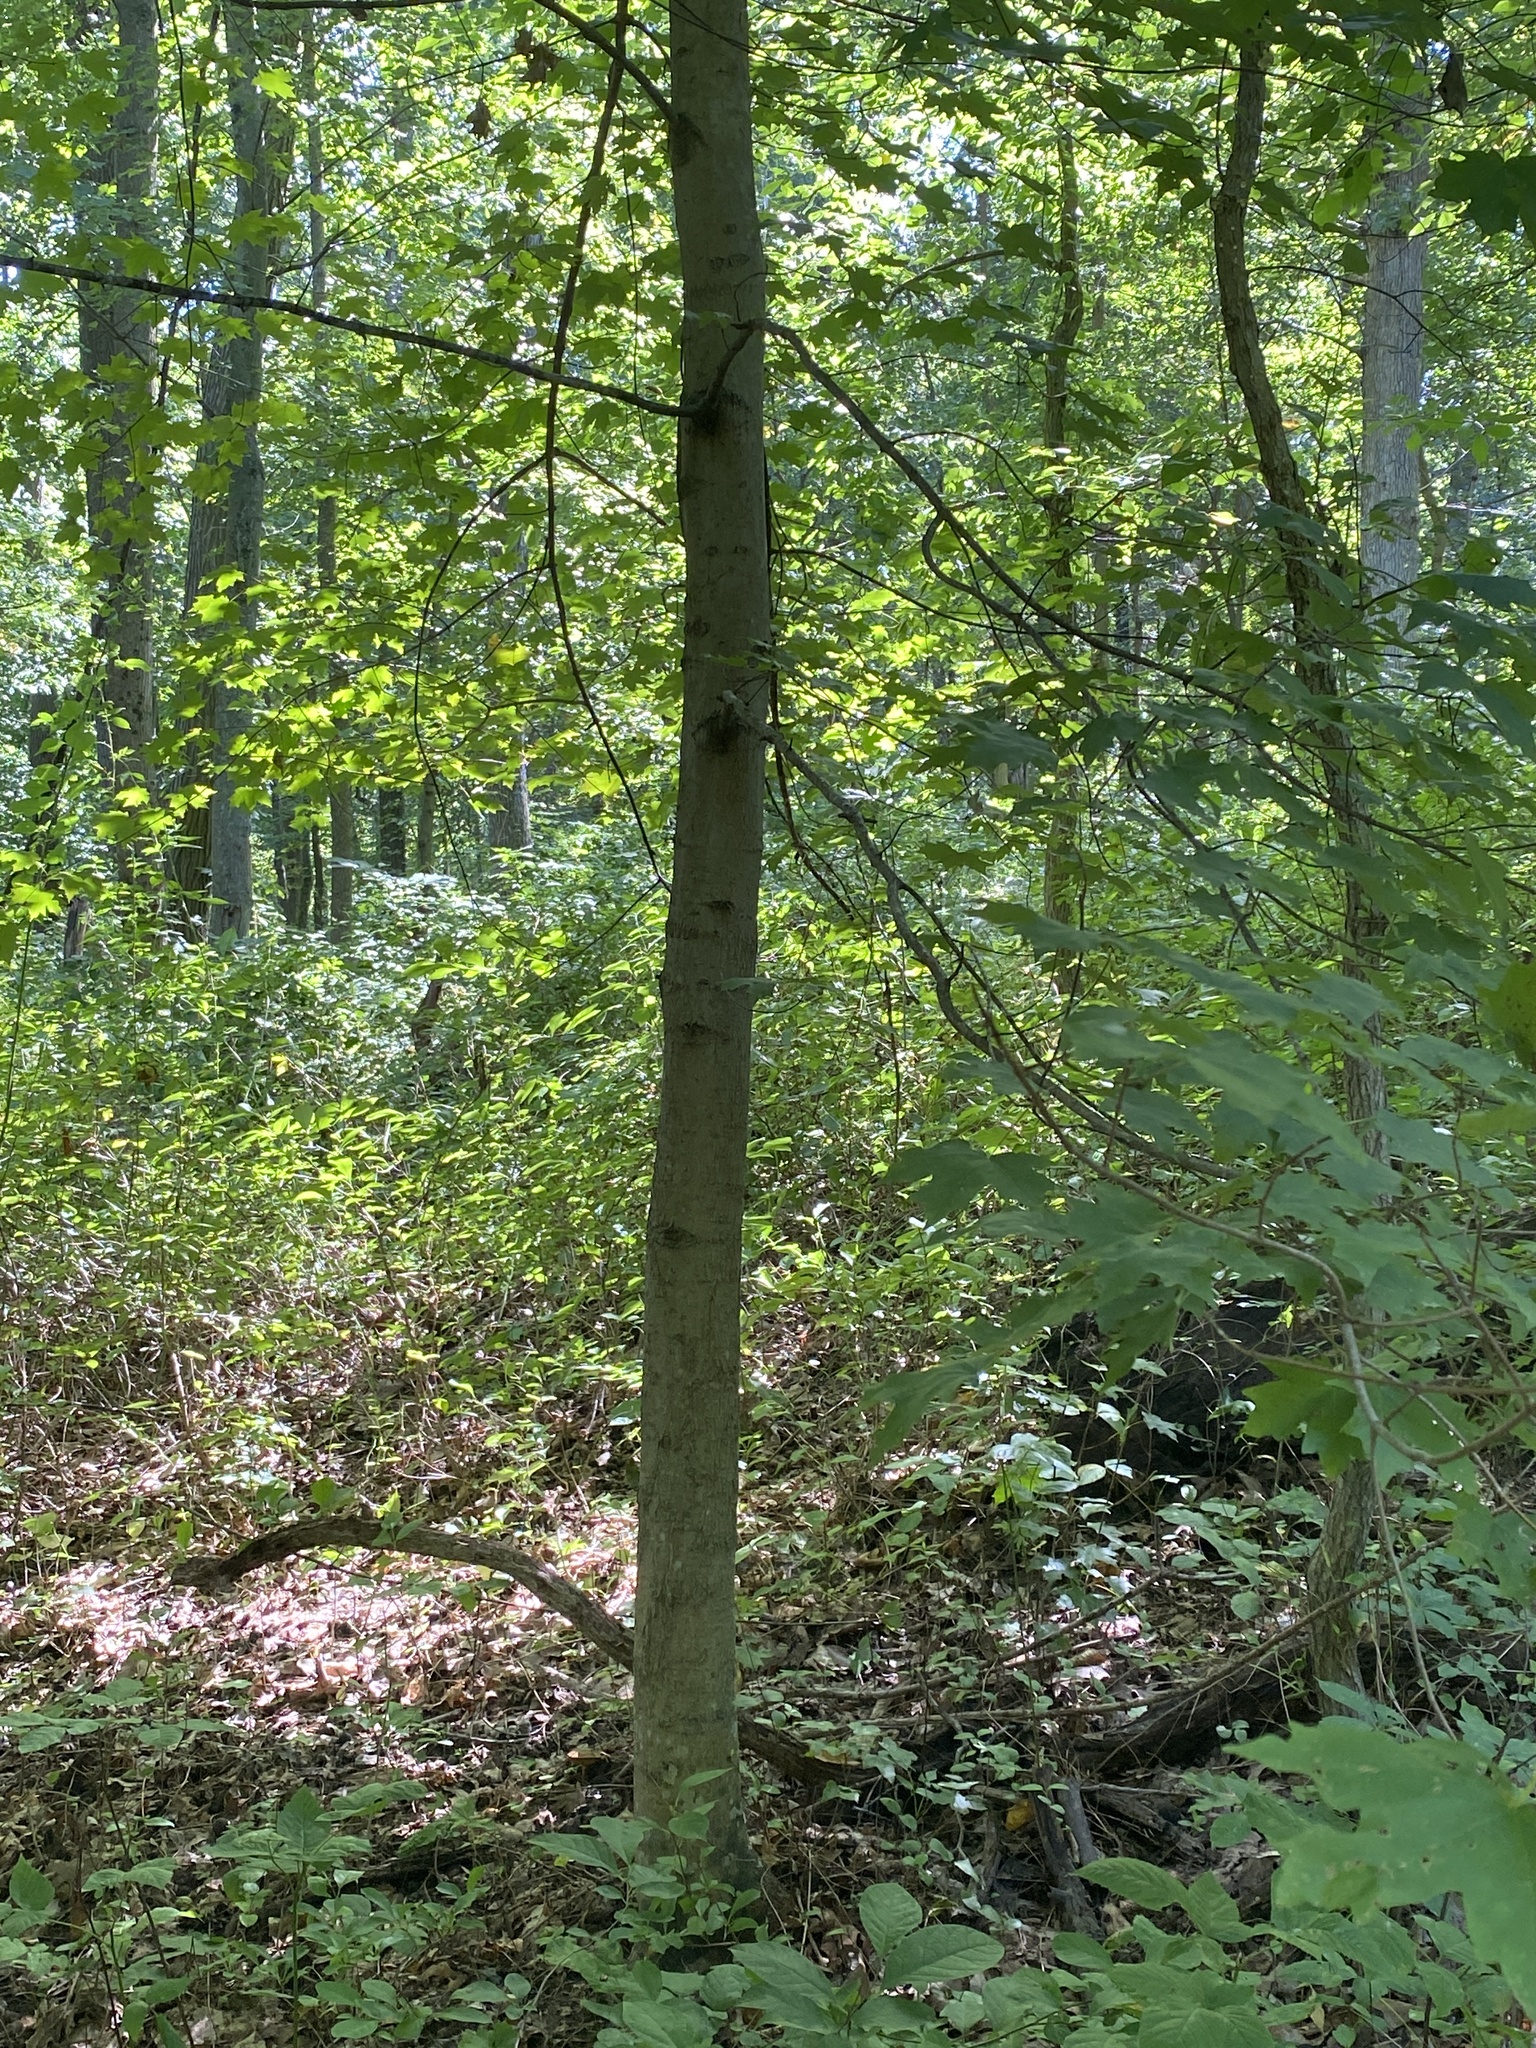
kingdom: Plantae
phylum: Tracheophyta
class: Magnoliopsida
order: Sapindales
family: Sapindaceae
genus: Acer
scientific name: Acer floridanum
